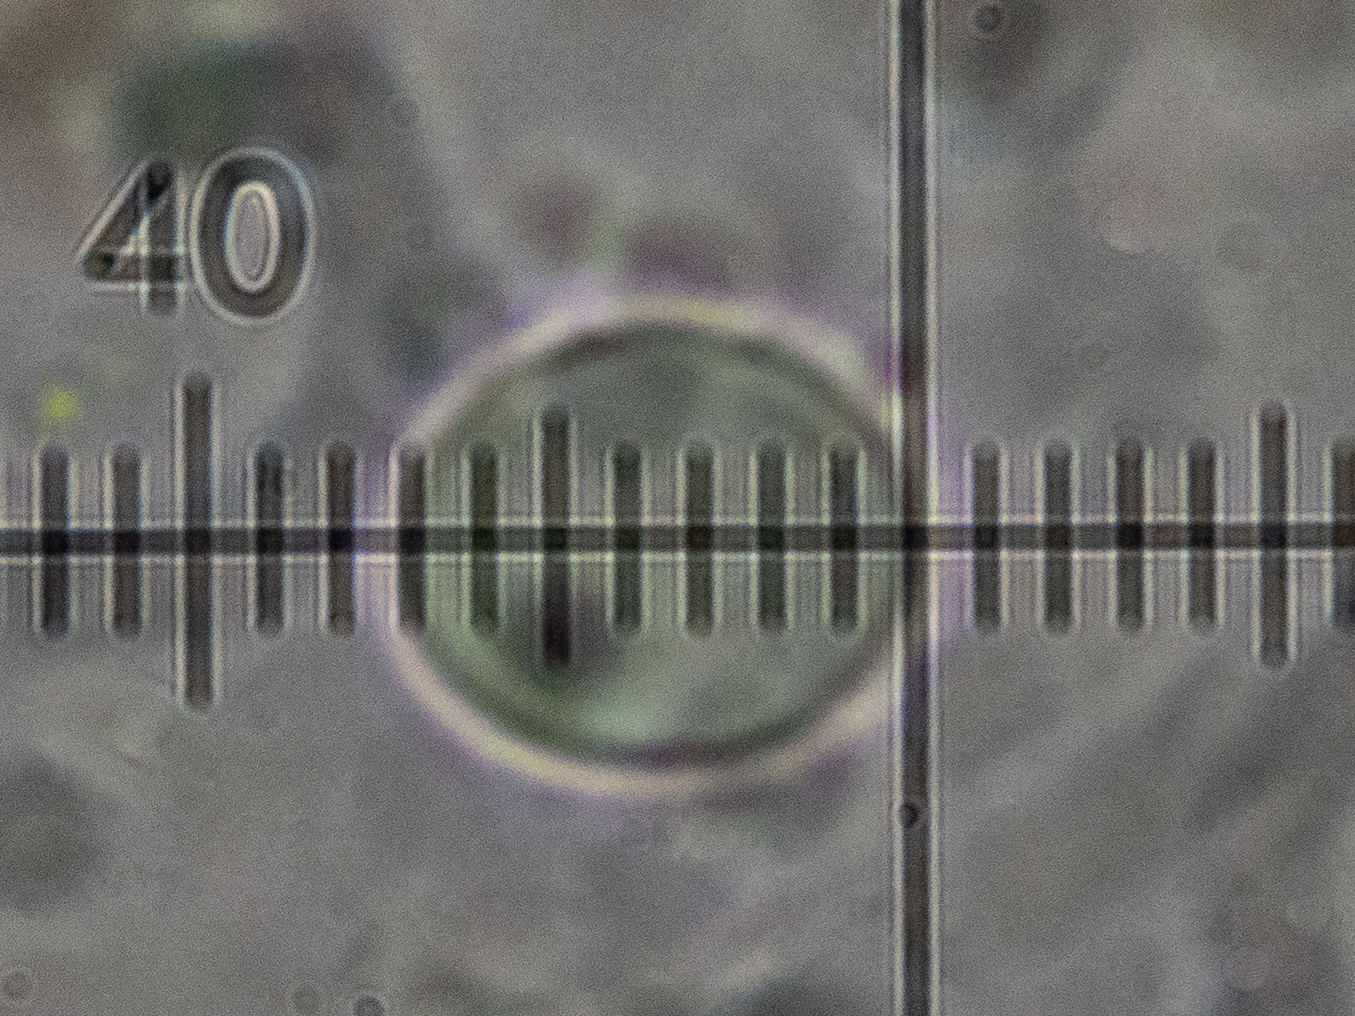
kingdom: Fungi
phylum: Ascomycota
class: Lecanoromycetes
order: Lecanorales
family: Parmeliaceae
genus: Usnea
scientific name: Usnea intermedia
